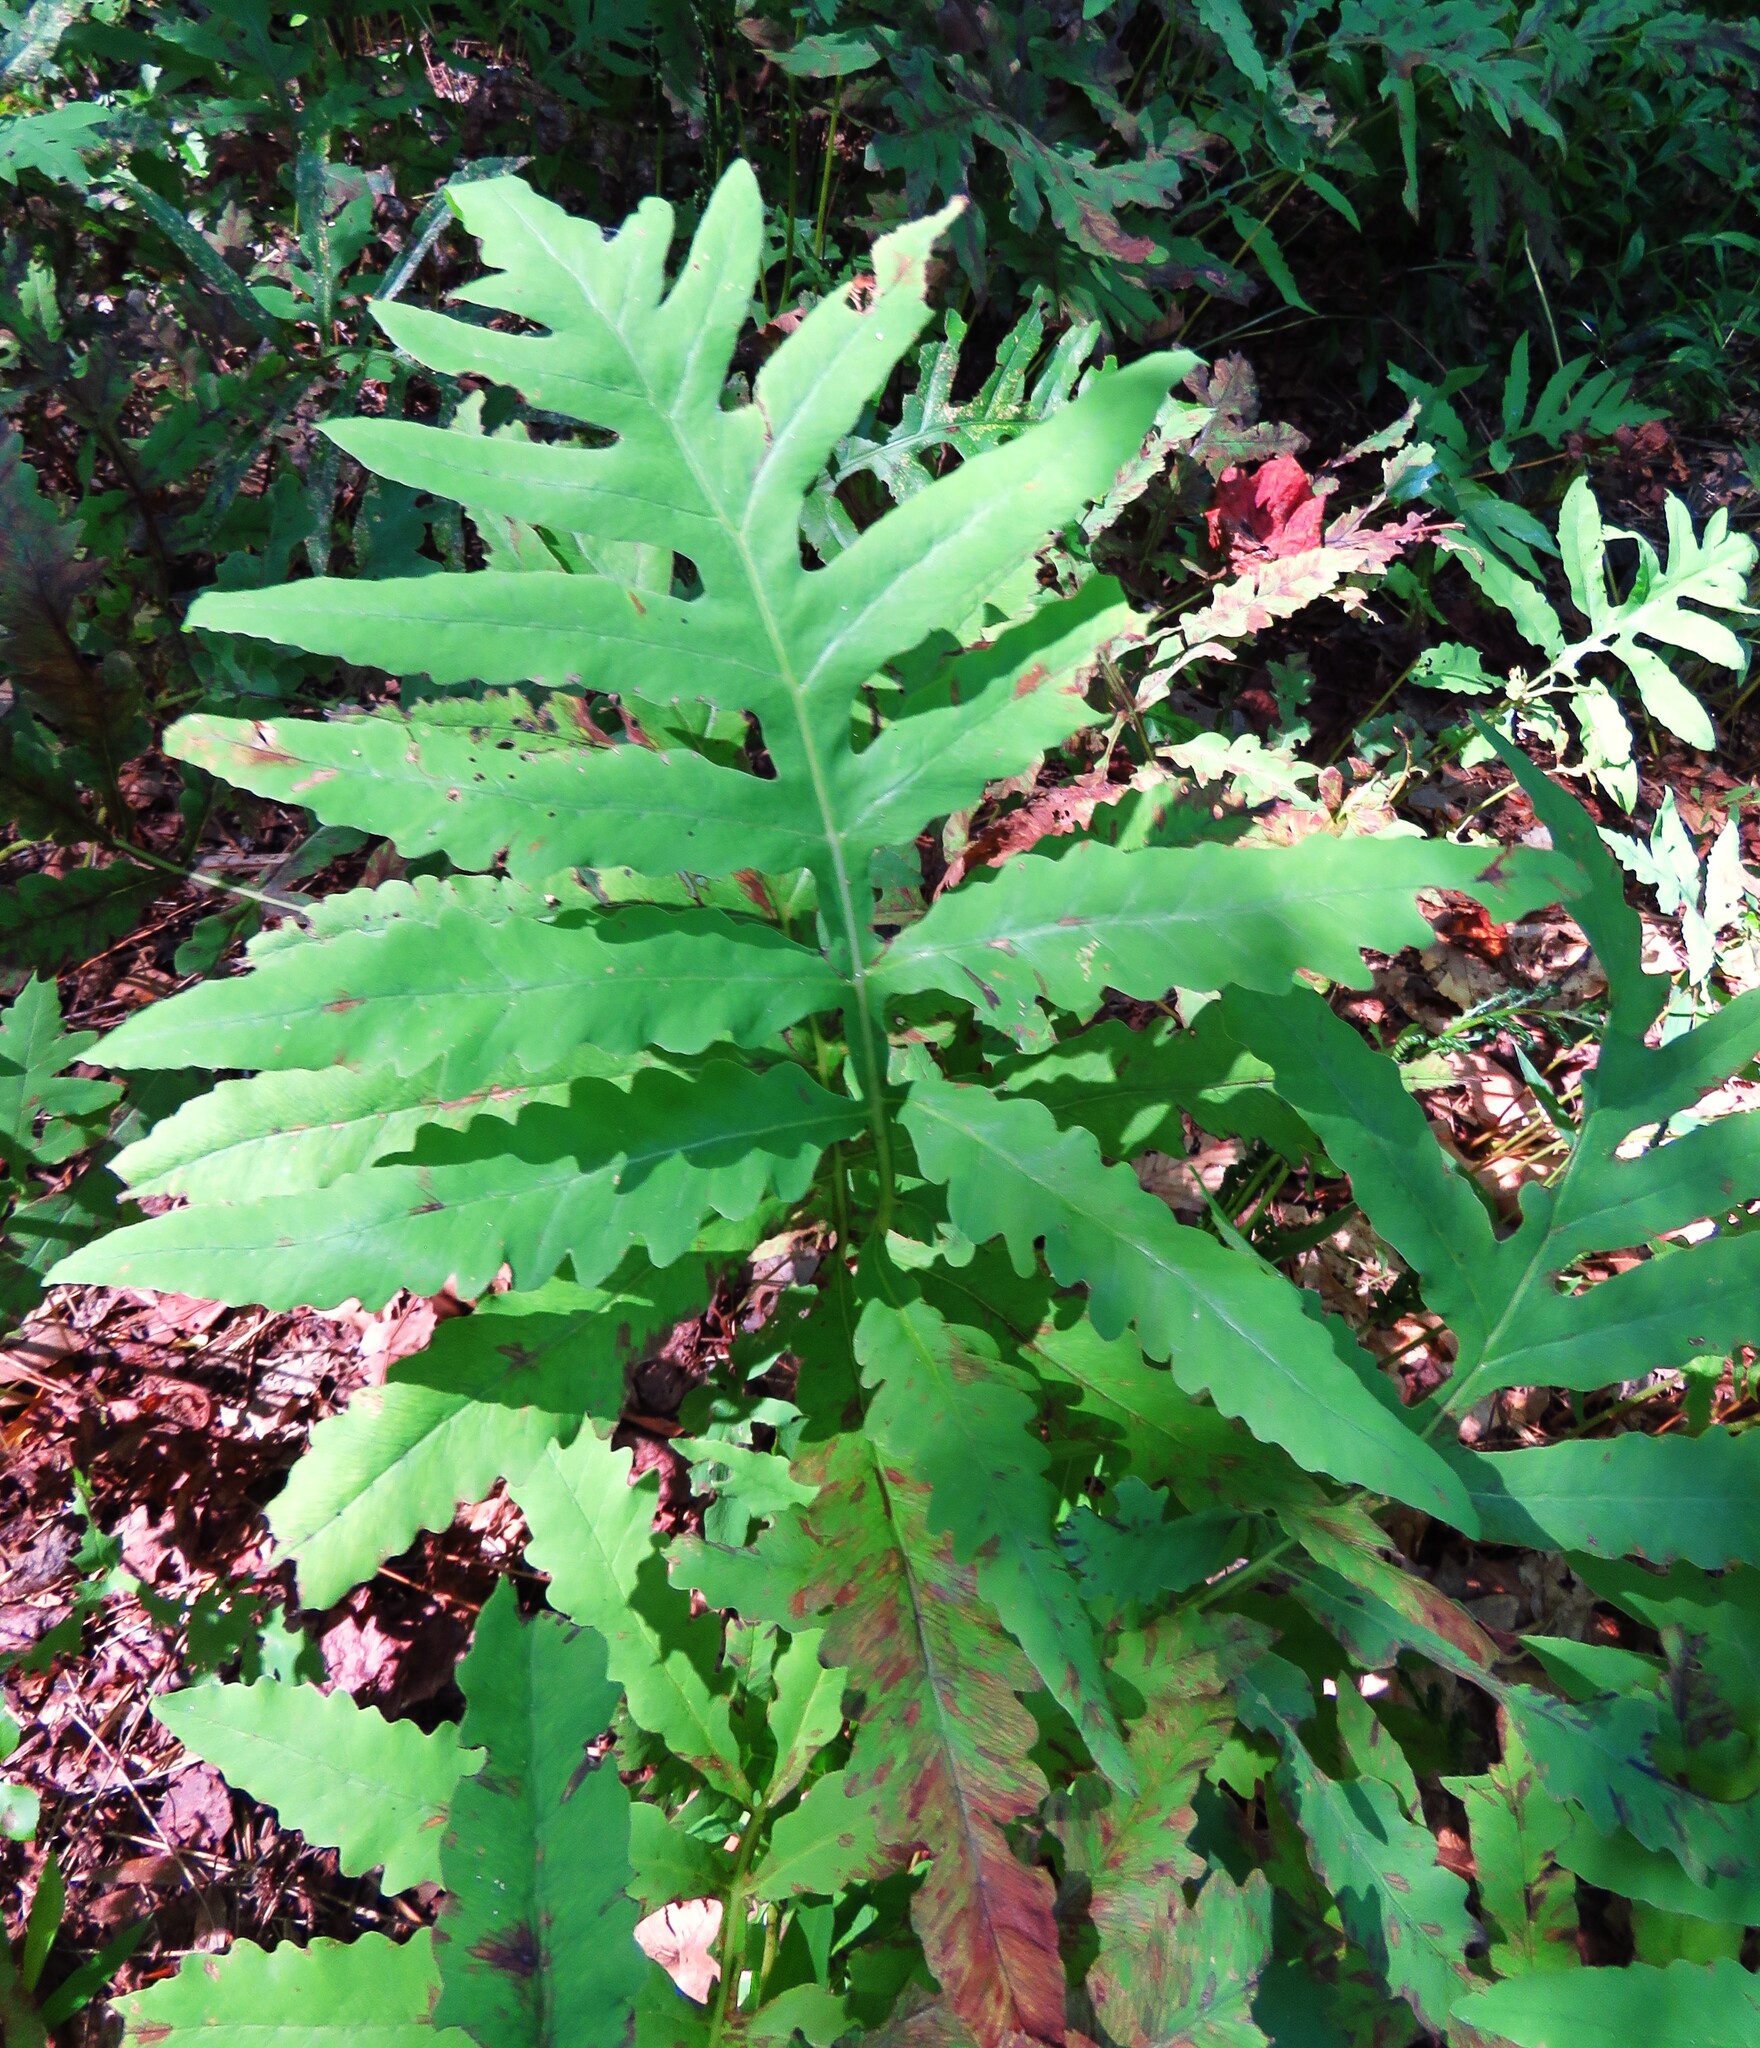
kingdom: Plantae
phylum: Tracheophyta
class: Polypodiopsida
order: Polypodiales
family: Onocleaceae
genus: Onoclea
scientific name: Onoclea sensibilis
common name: Sensitive fern
